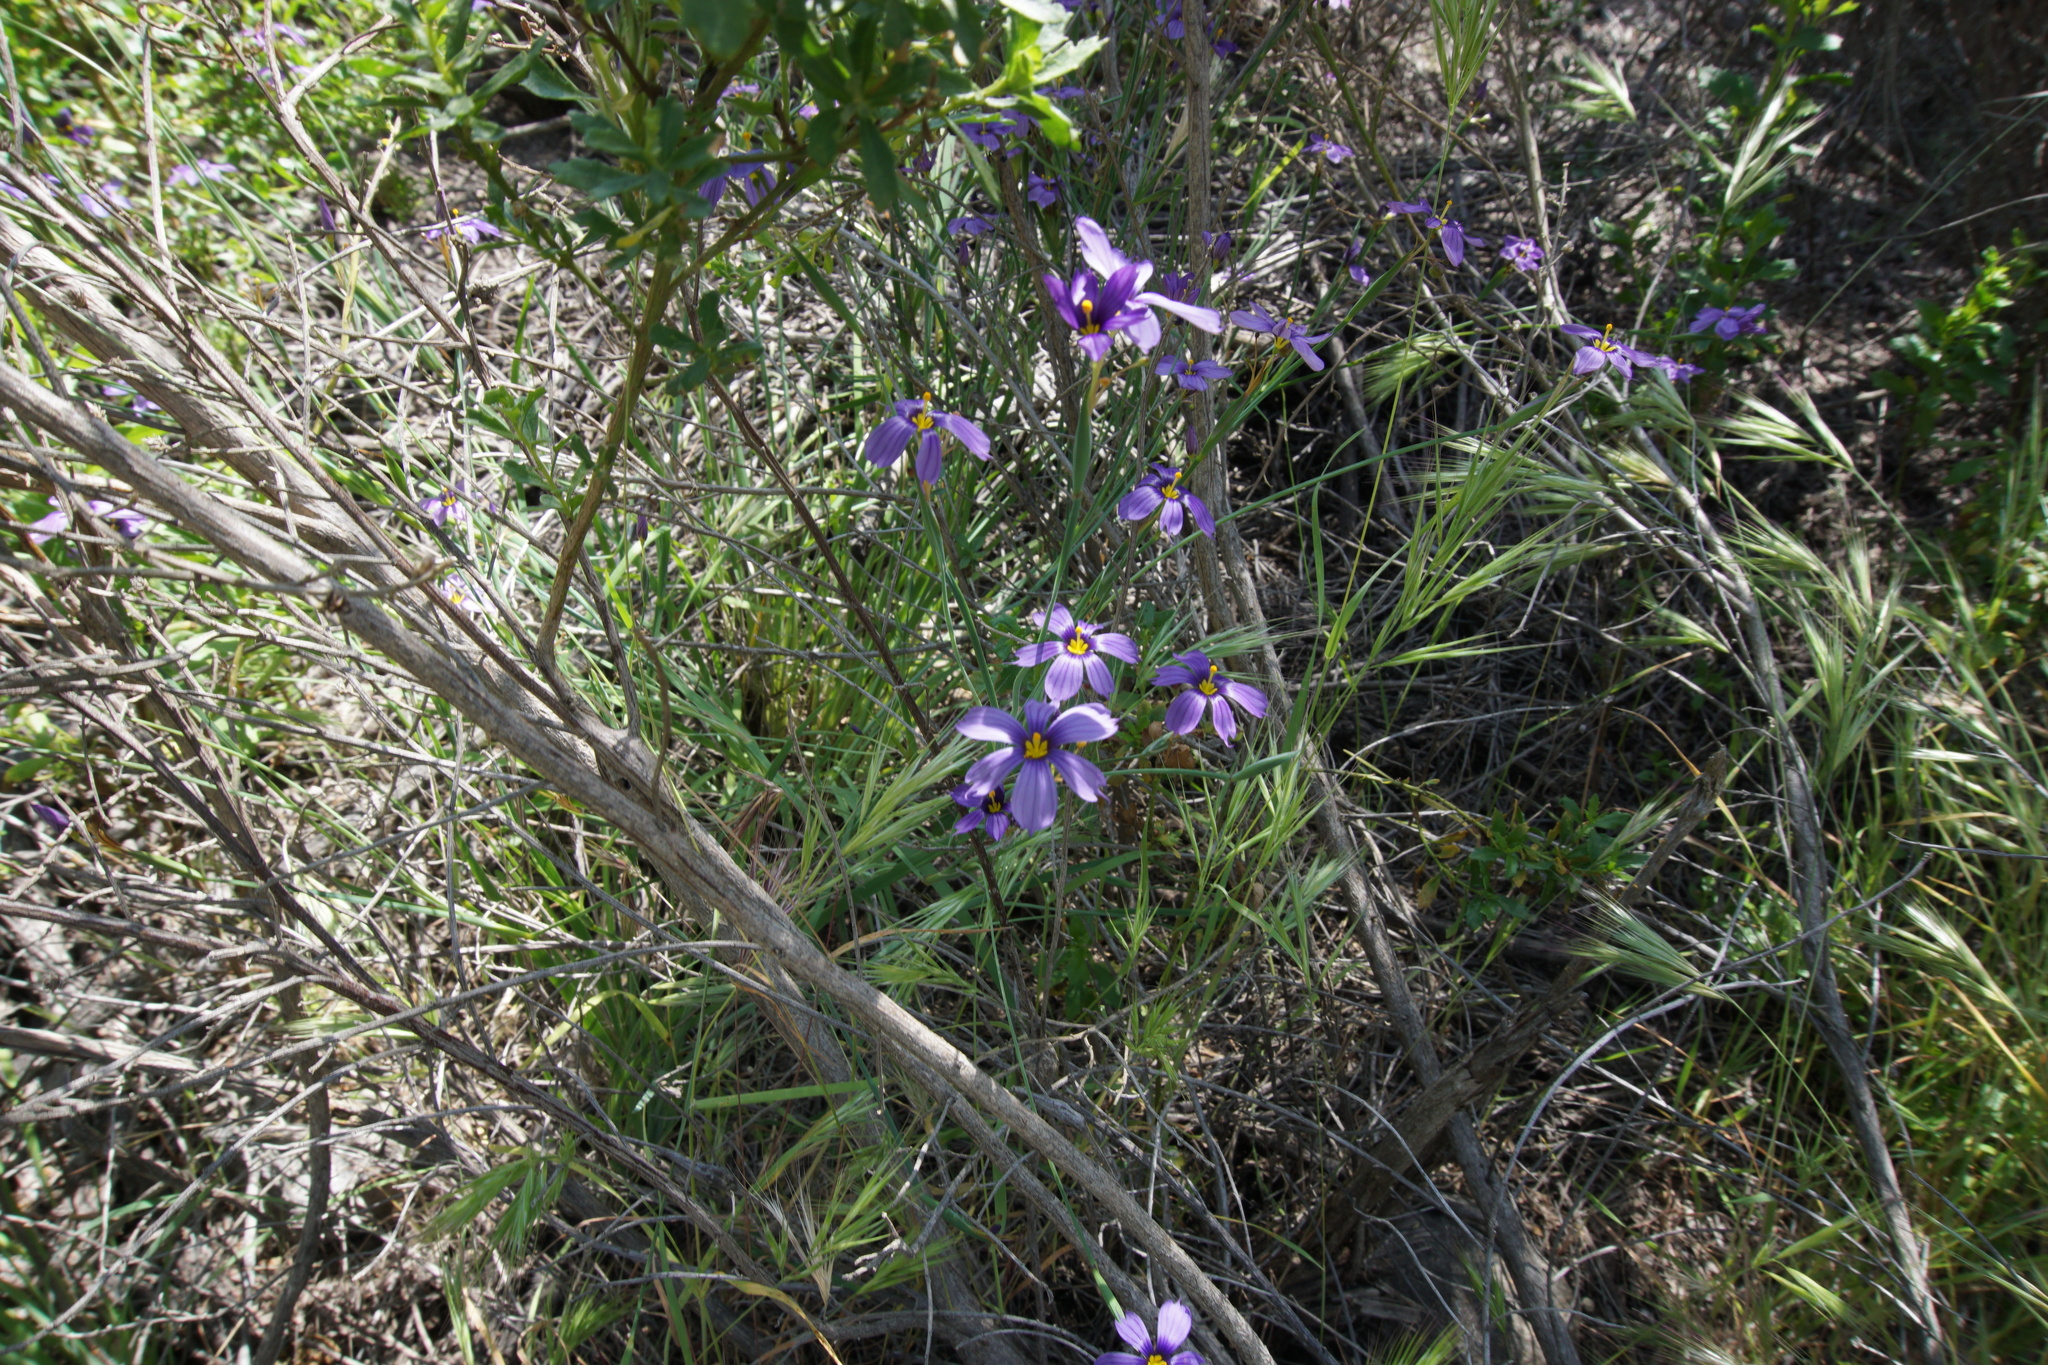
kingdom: Plantae
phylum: Tracheophyta
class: Liliopsida
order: Asparagales
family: Iridaceae
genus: Sisyrinchium
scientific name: Sisyrinchium bellum
